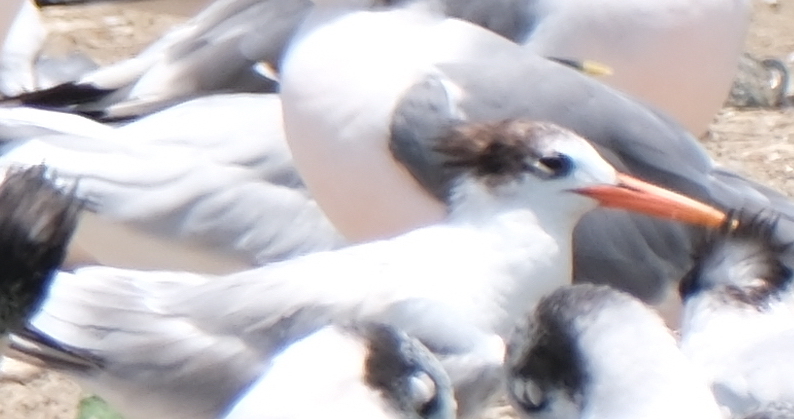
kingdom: Animalia
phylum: Chordata
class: Aves
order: Charadriiformes
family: Laridae
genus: Thalasseus
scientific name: Thalasseus elegans
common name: Elegant tern
